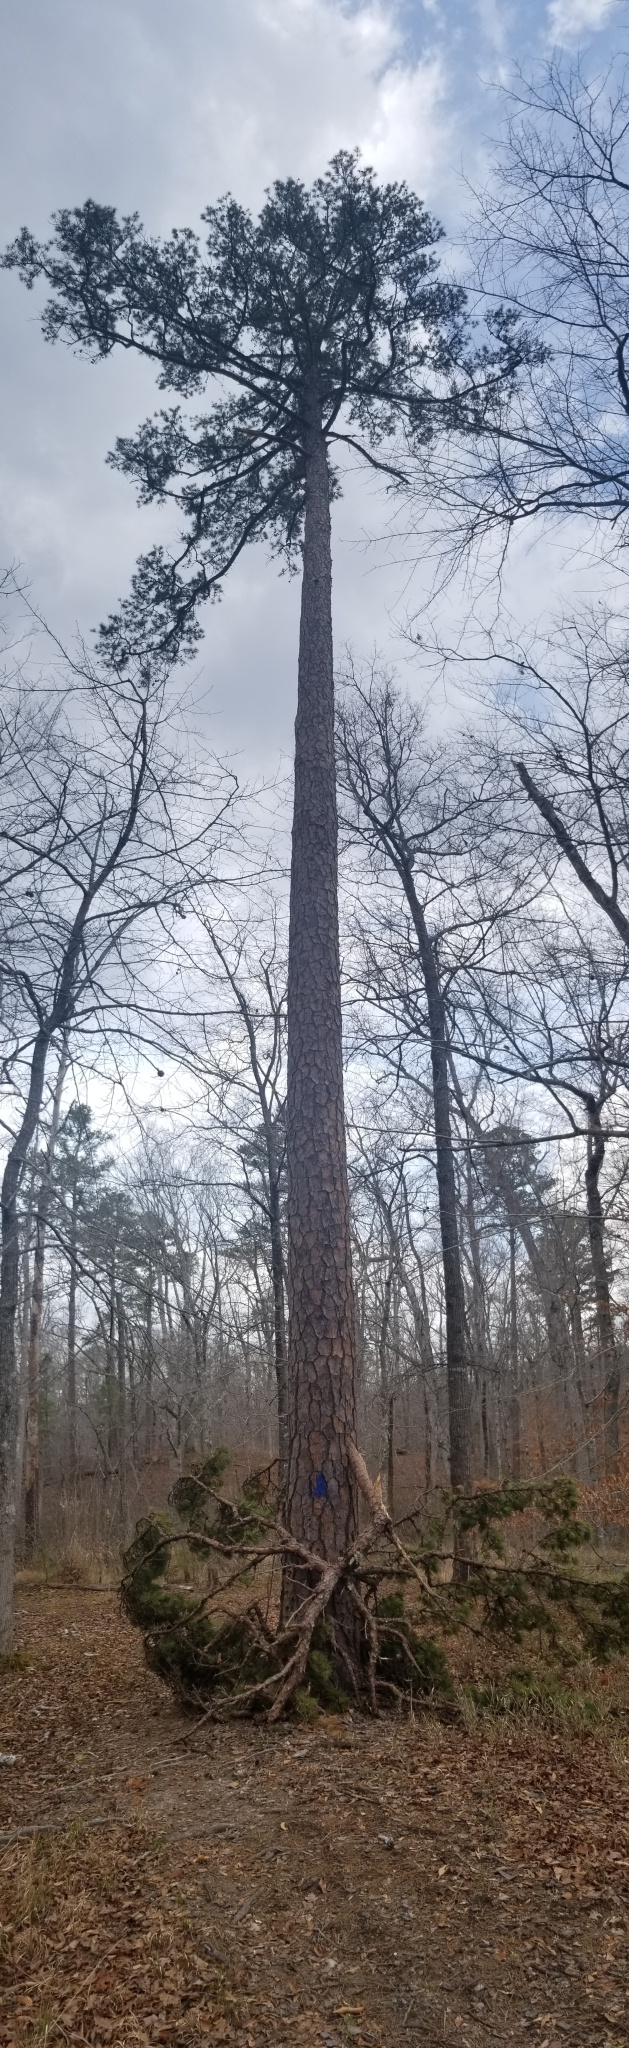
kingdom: Plantae
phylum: Tracheophyta
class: Pinopsida
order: Pinales
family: Pinaceae
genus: Pinus
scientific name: Pinus echinata
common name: Shortleaf pine
